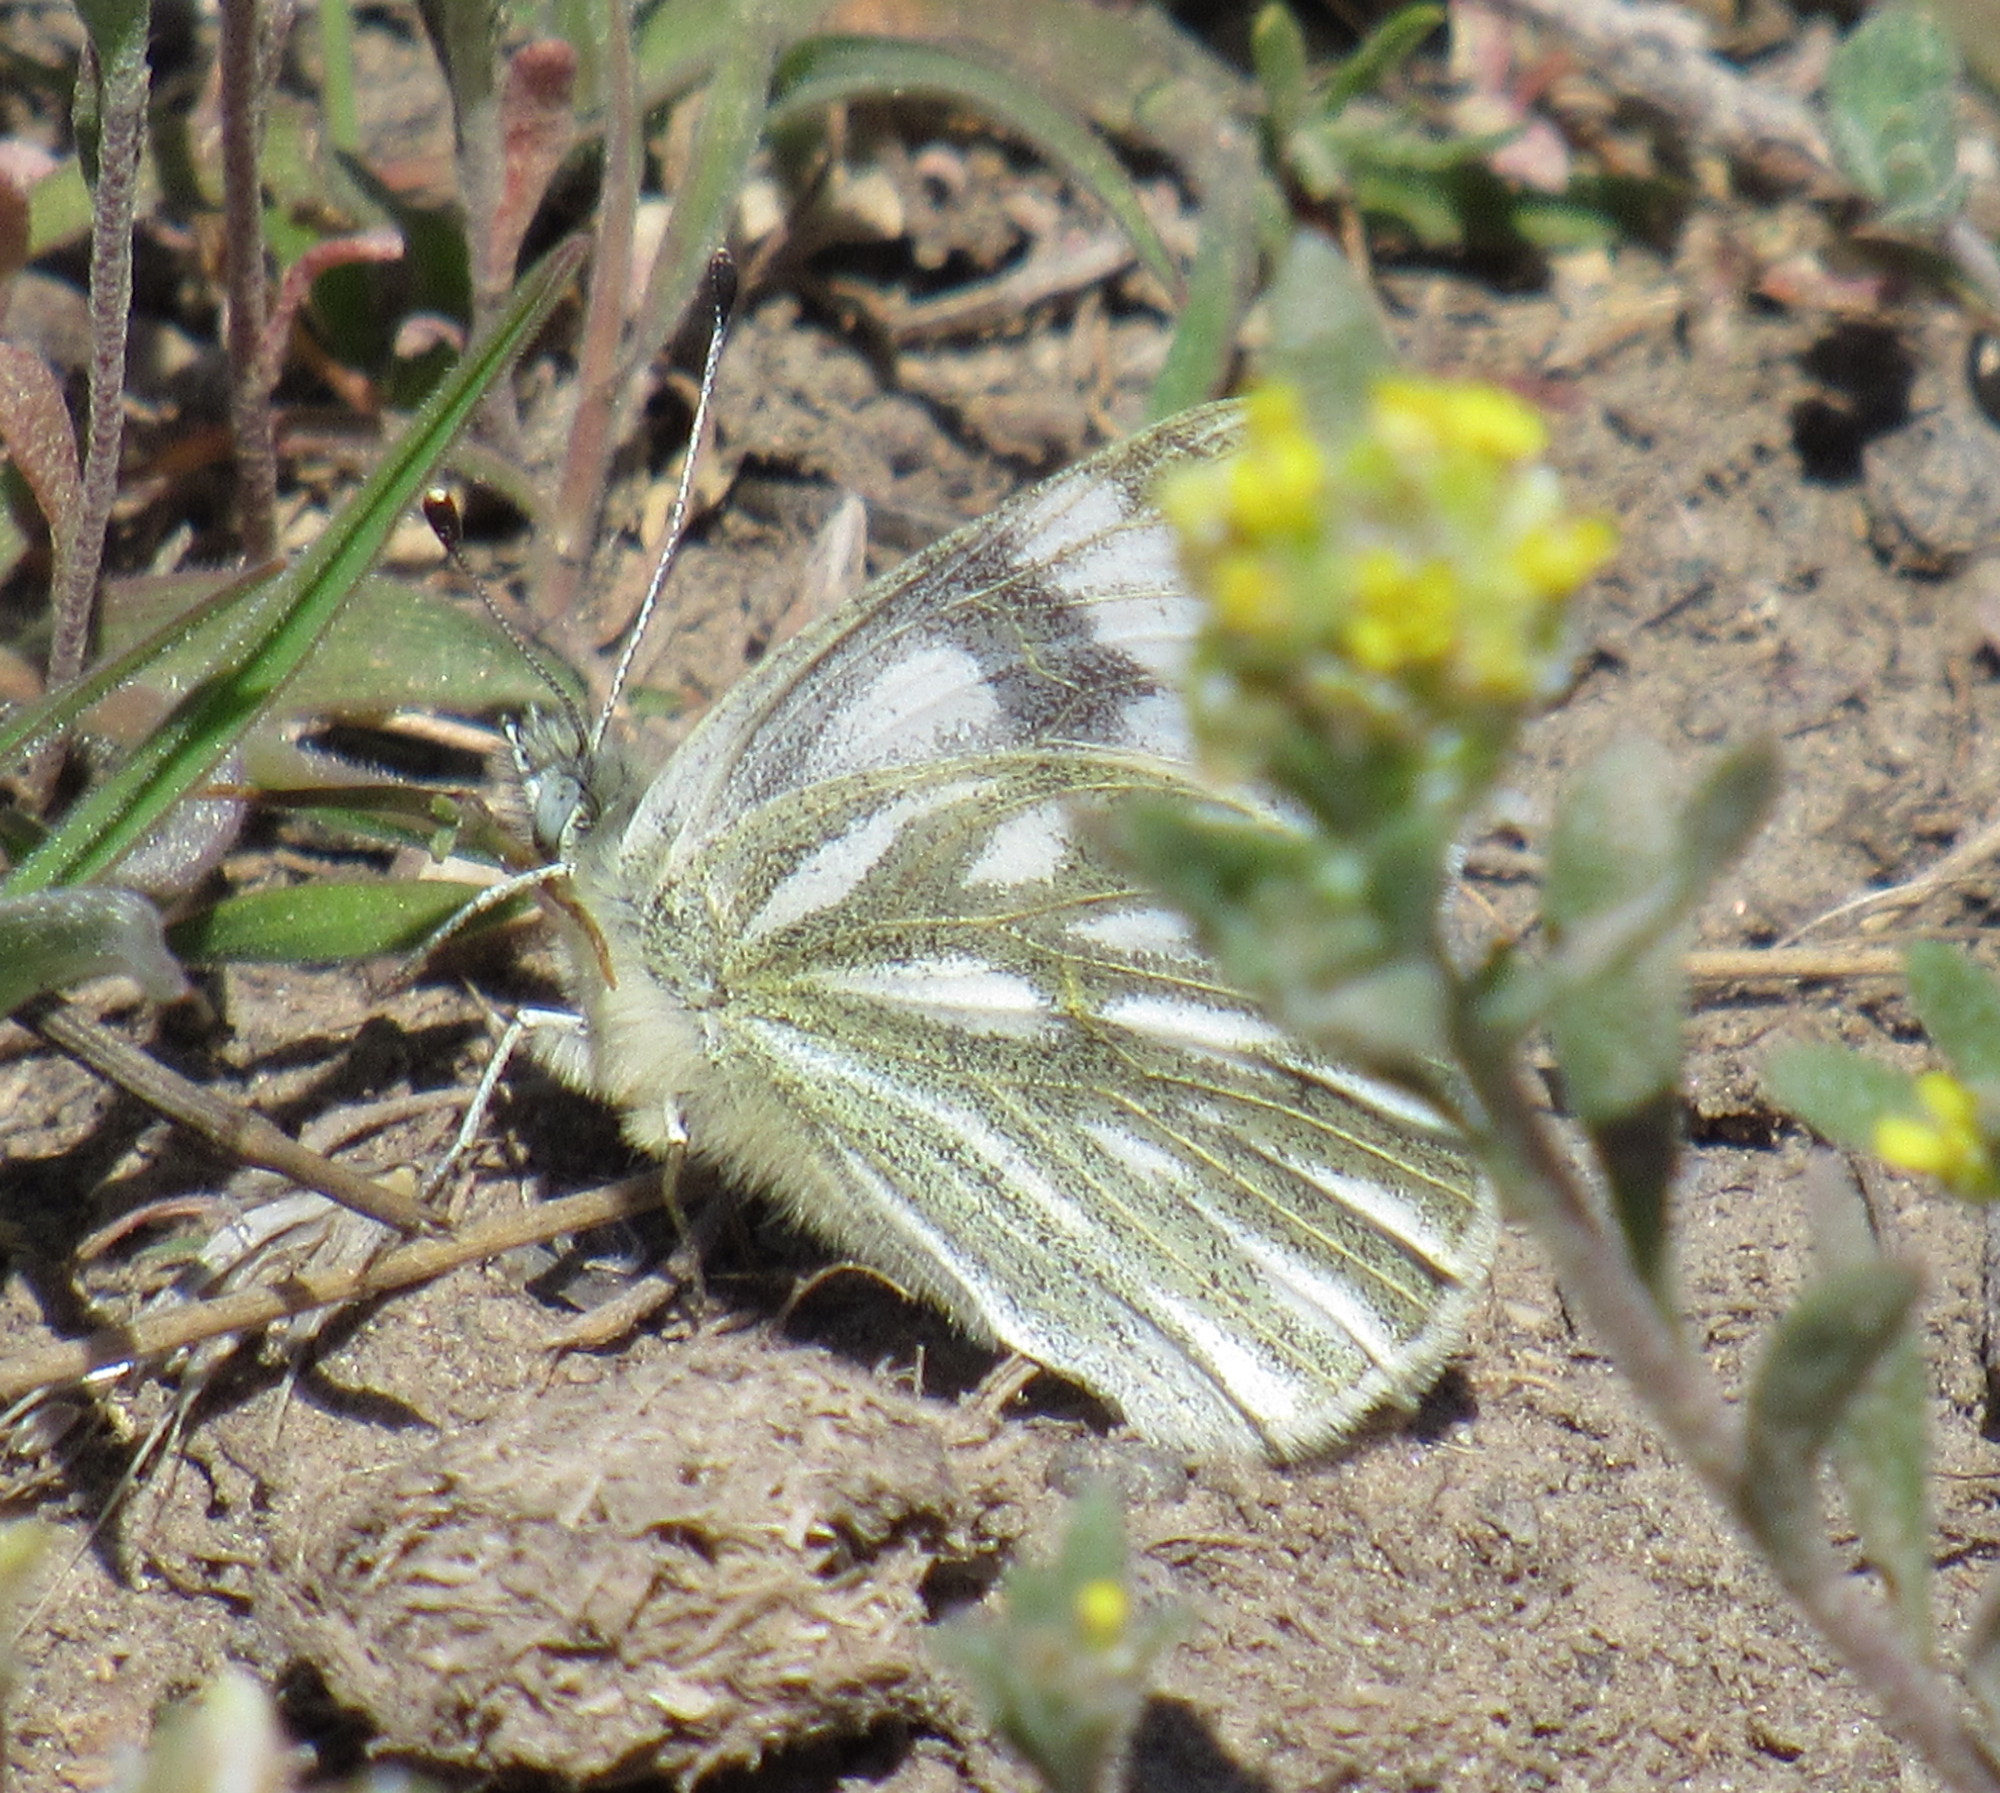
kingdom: Animalia
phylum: Arthropoda
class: Insecta
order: Lepidoptera
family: Pieridae
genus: Pontia
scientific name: Pontia occidentalis
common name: Western white
